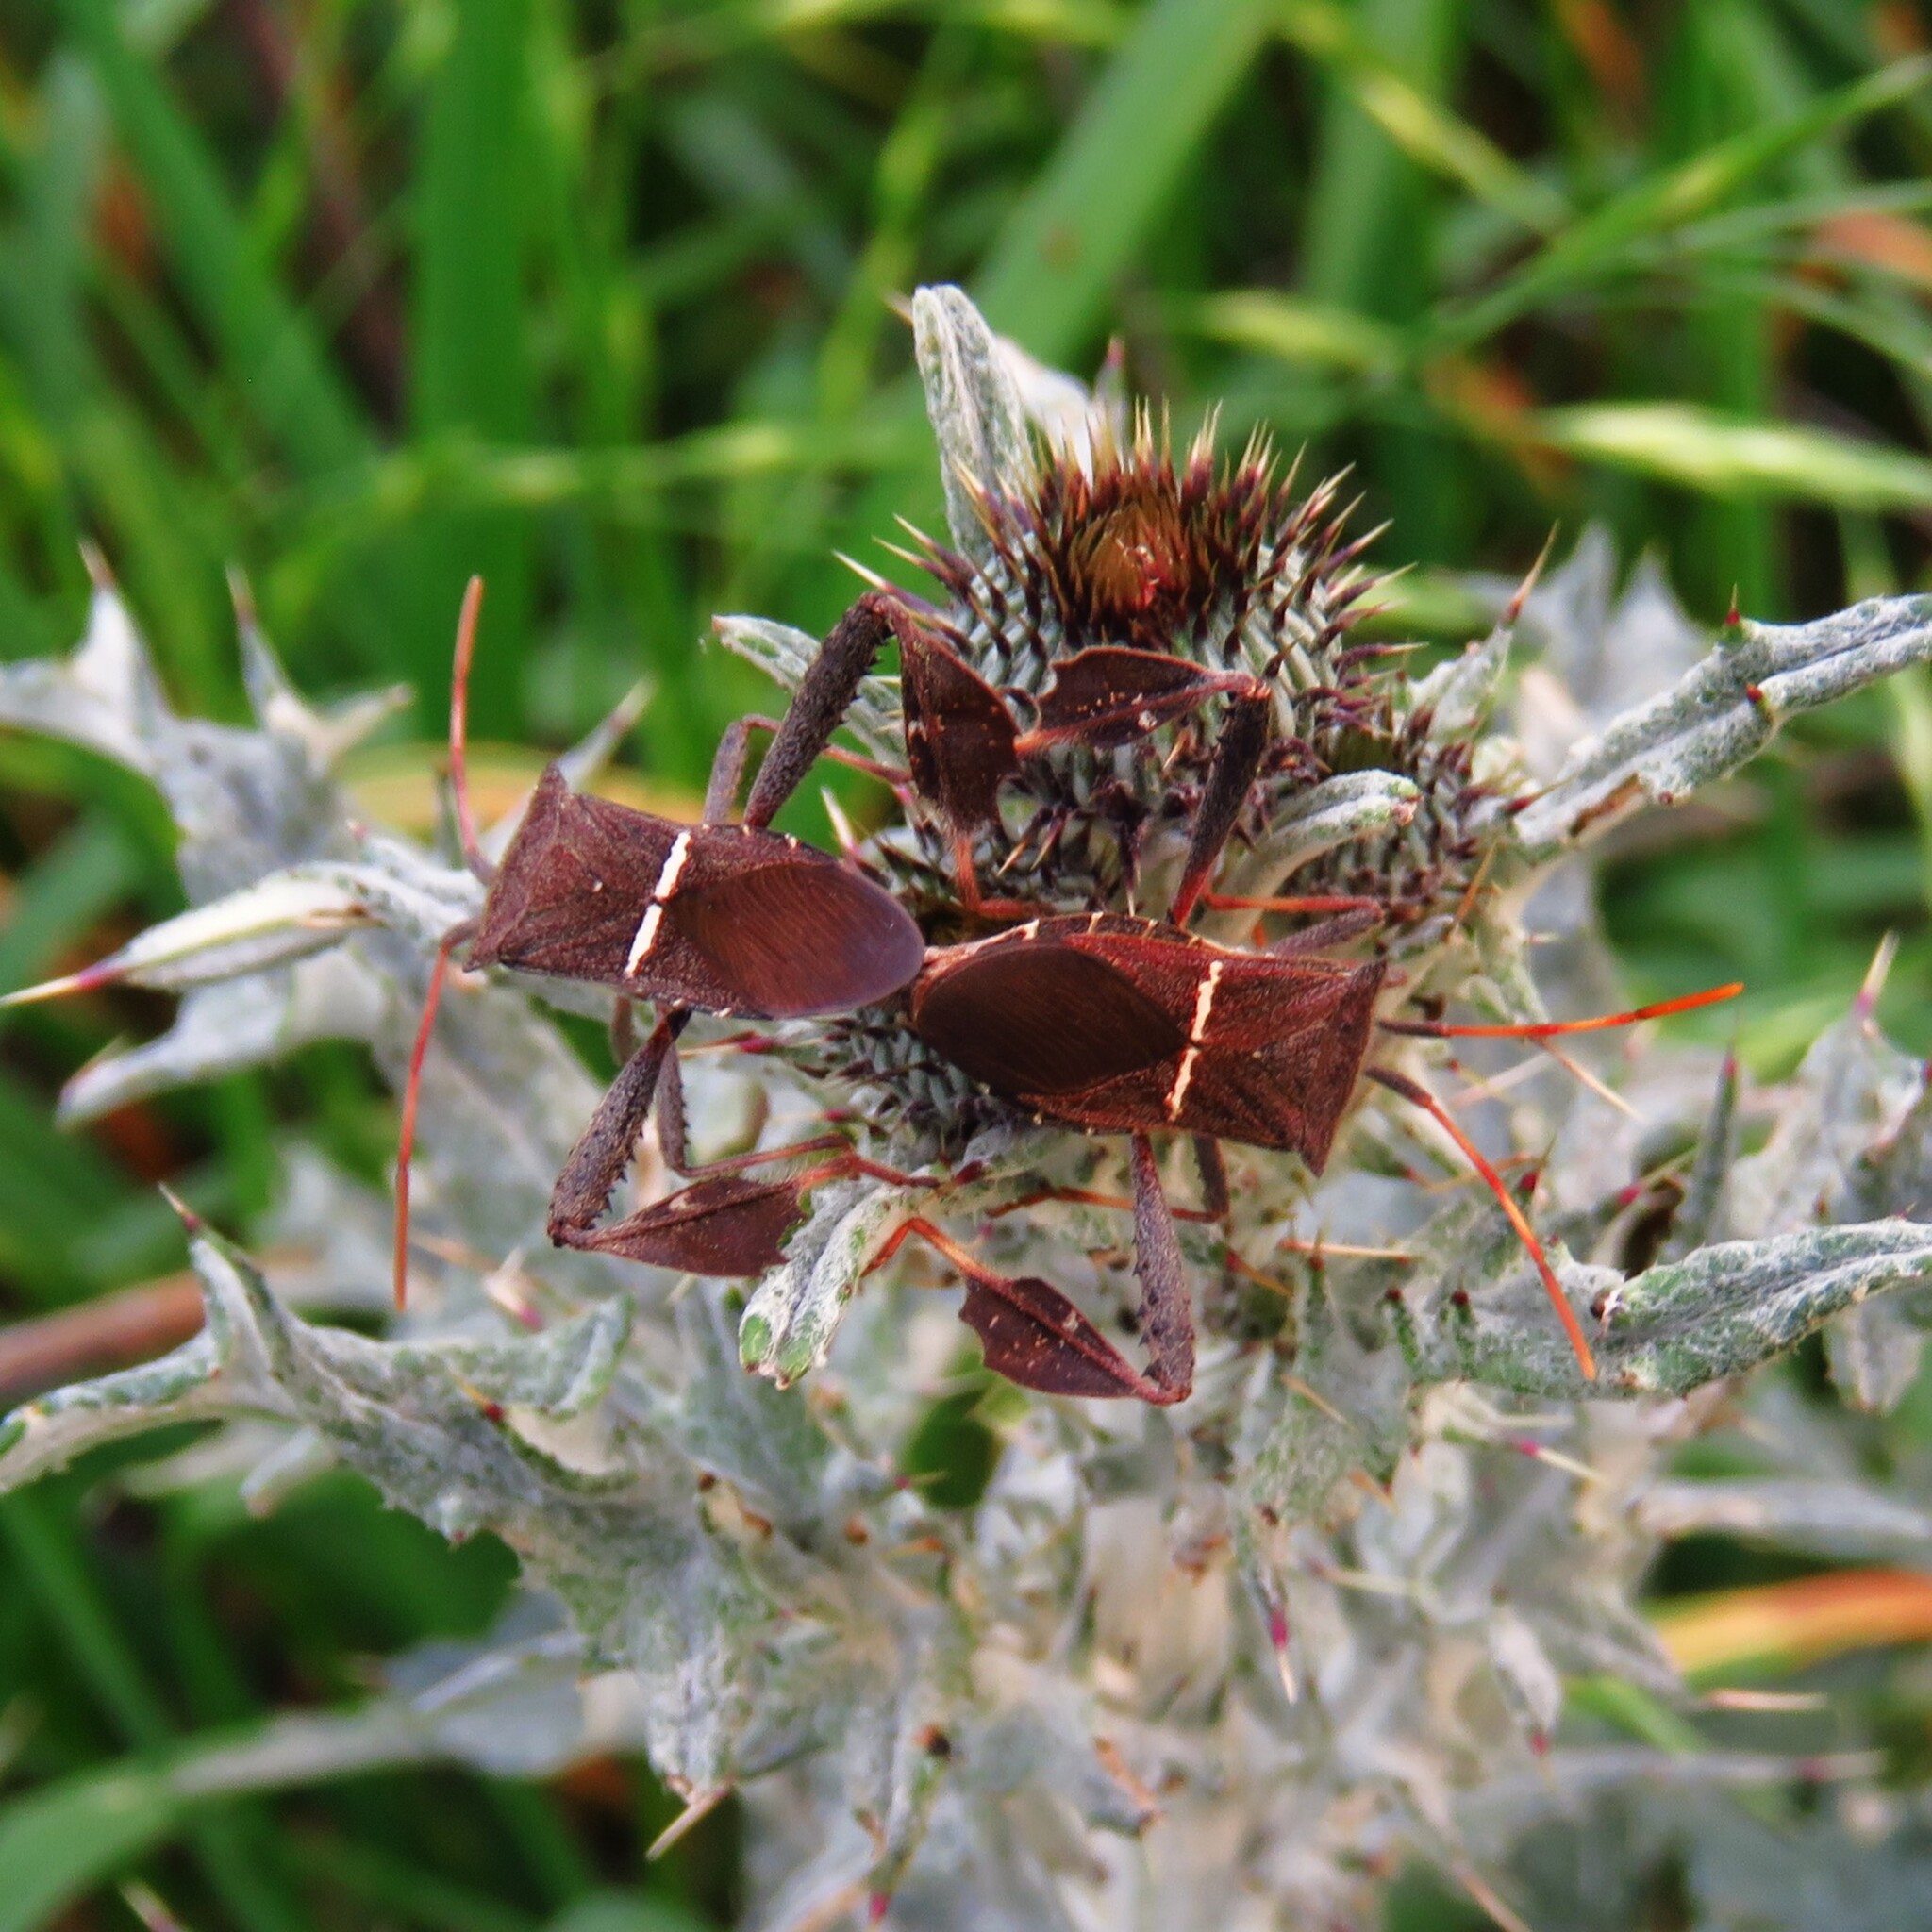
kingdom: Animalia
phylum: Arthropoda
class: Insecta
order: Hemiptera
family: Coreidae
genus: Leptoglossus
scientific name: Leptoglossus phyllopus
